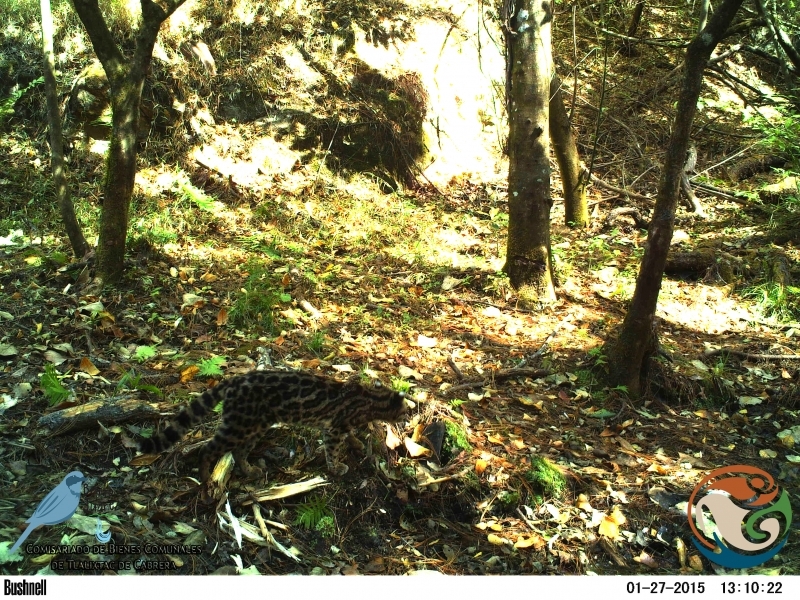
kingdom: Animalia
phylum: Chordata
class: Mammalia
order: Carnivora
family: Felidae
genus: Leopardus
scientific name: Leopardus wiedii
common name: Margay
